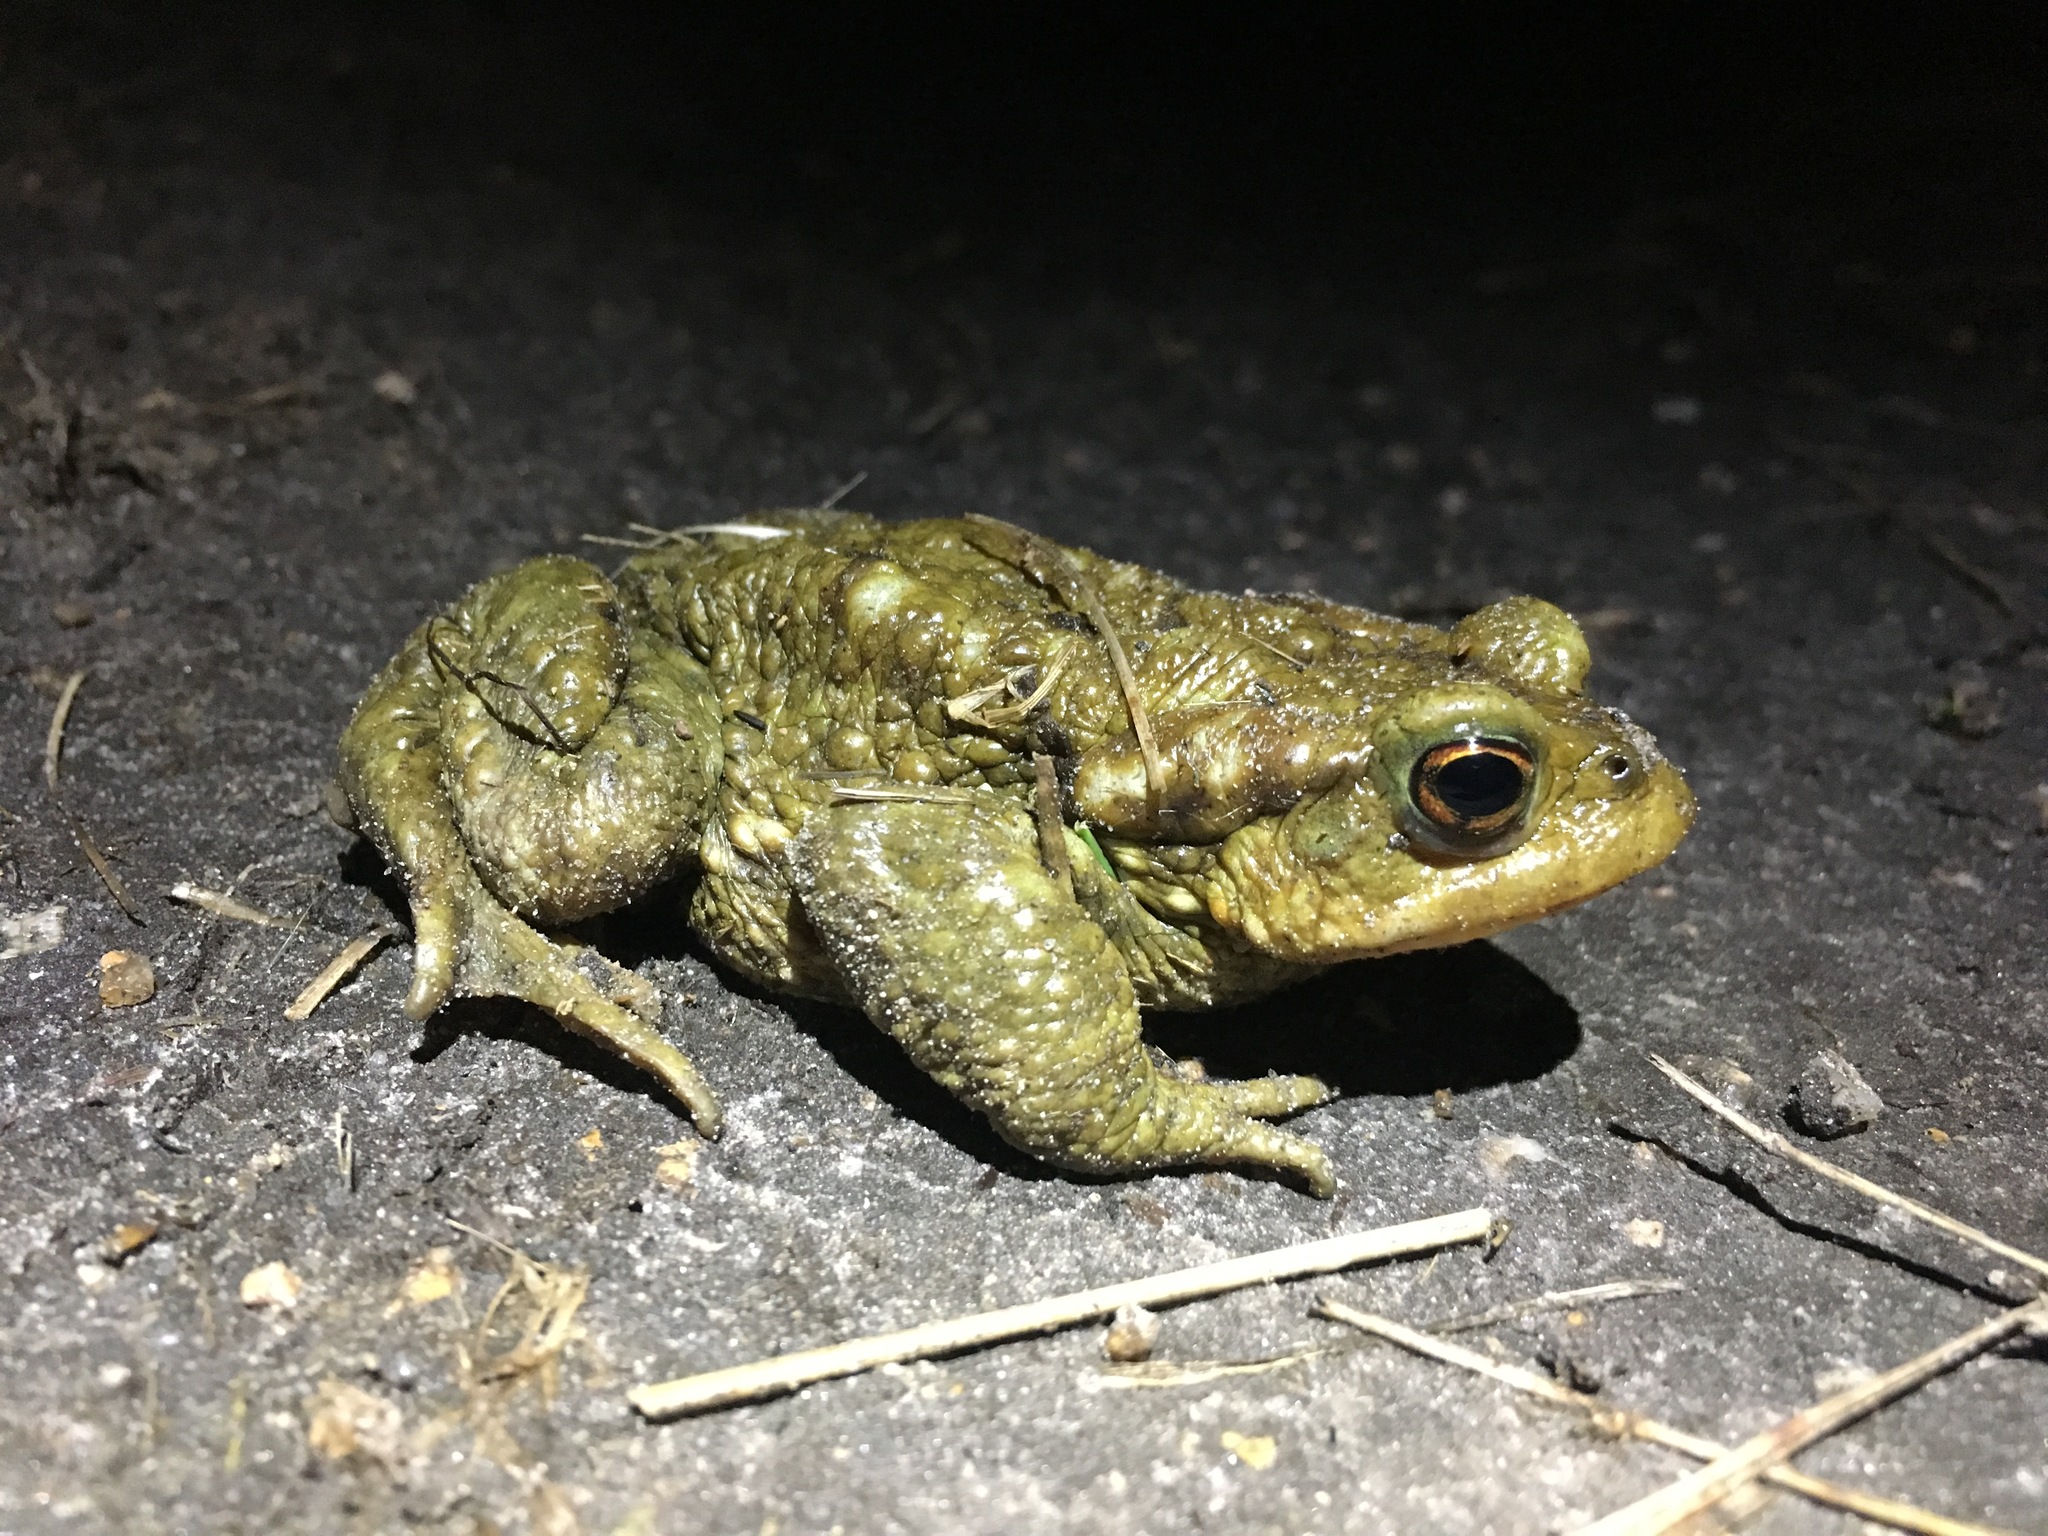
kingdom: Animalia
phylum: Chordata
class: Amphibia
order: Anura
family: Bufonidae
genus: Bufo
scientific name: Bufo spinosus
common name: Western common toad
